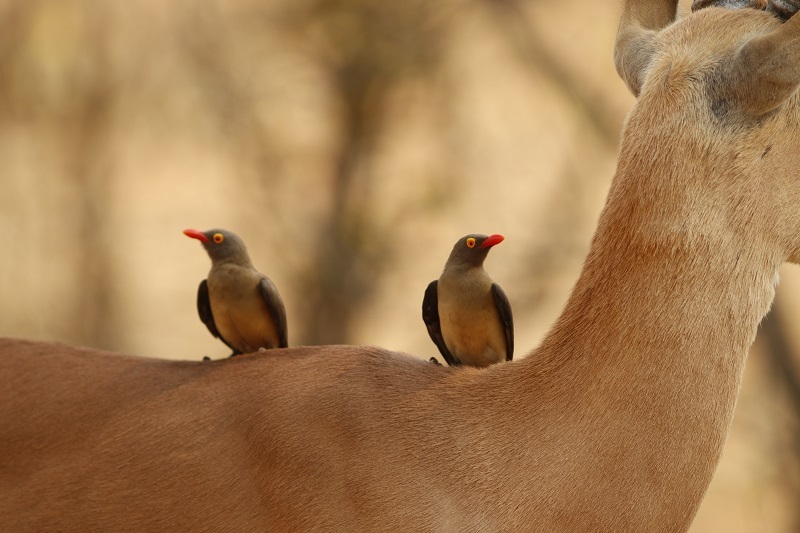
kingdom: Animalia
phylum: Chordata
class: Aves
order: Passeriformes
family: Buphagidae
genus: Buphagus
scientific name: Buphagus erythrorhynchus
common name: Red-billed oxpecker
